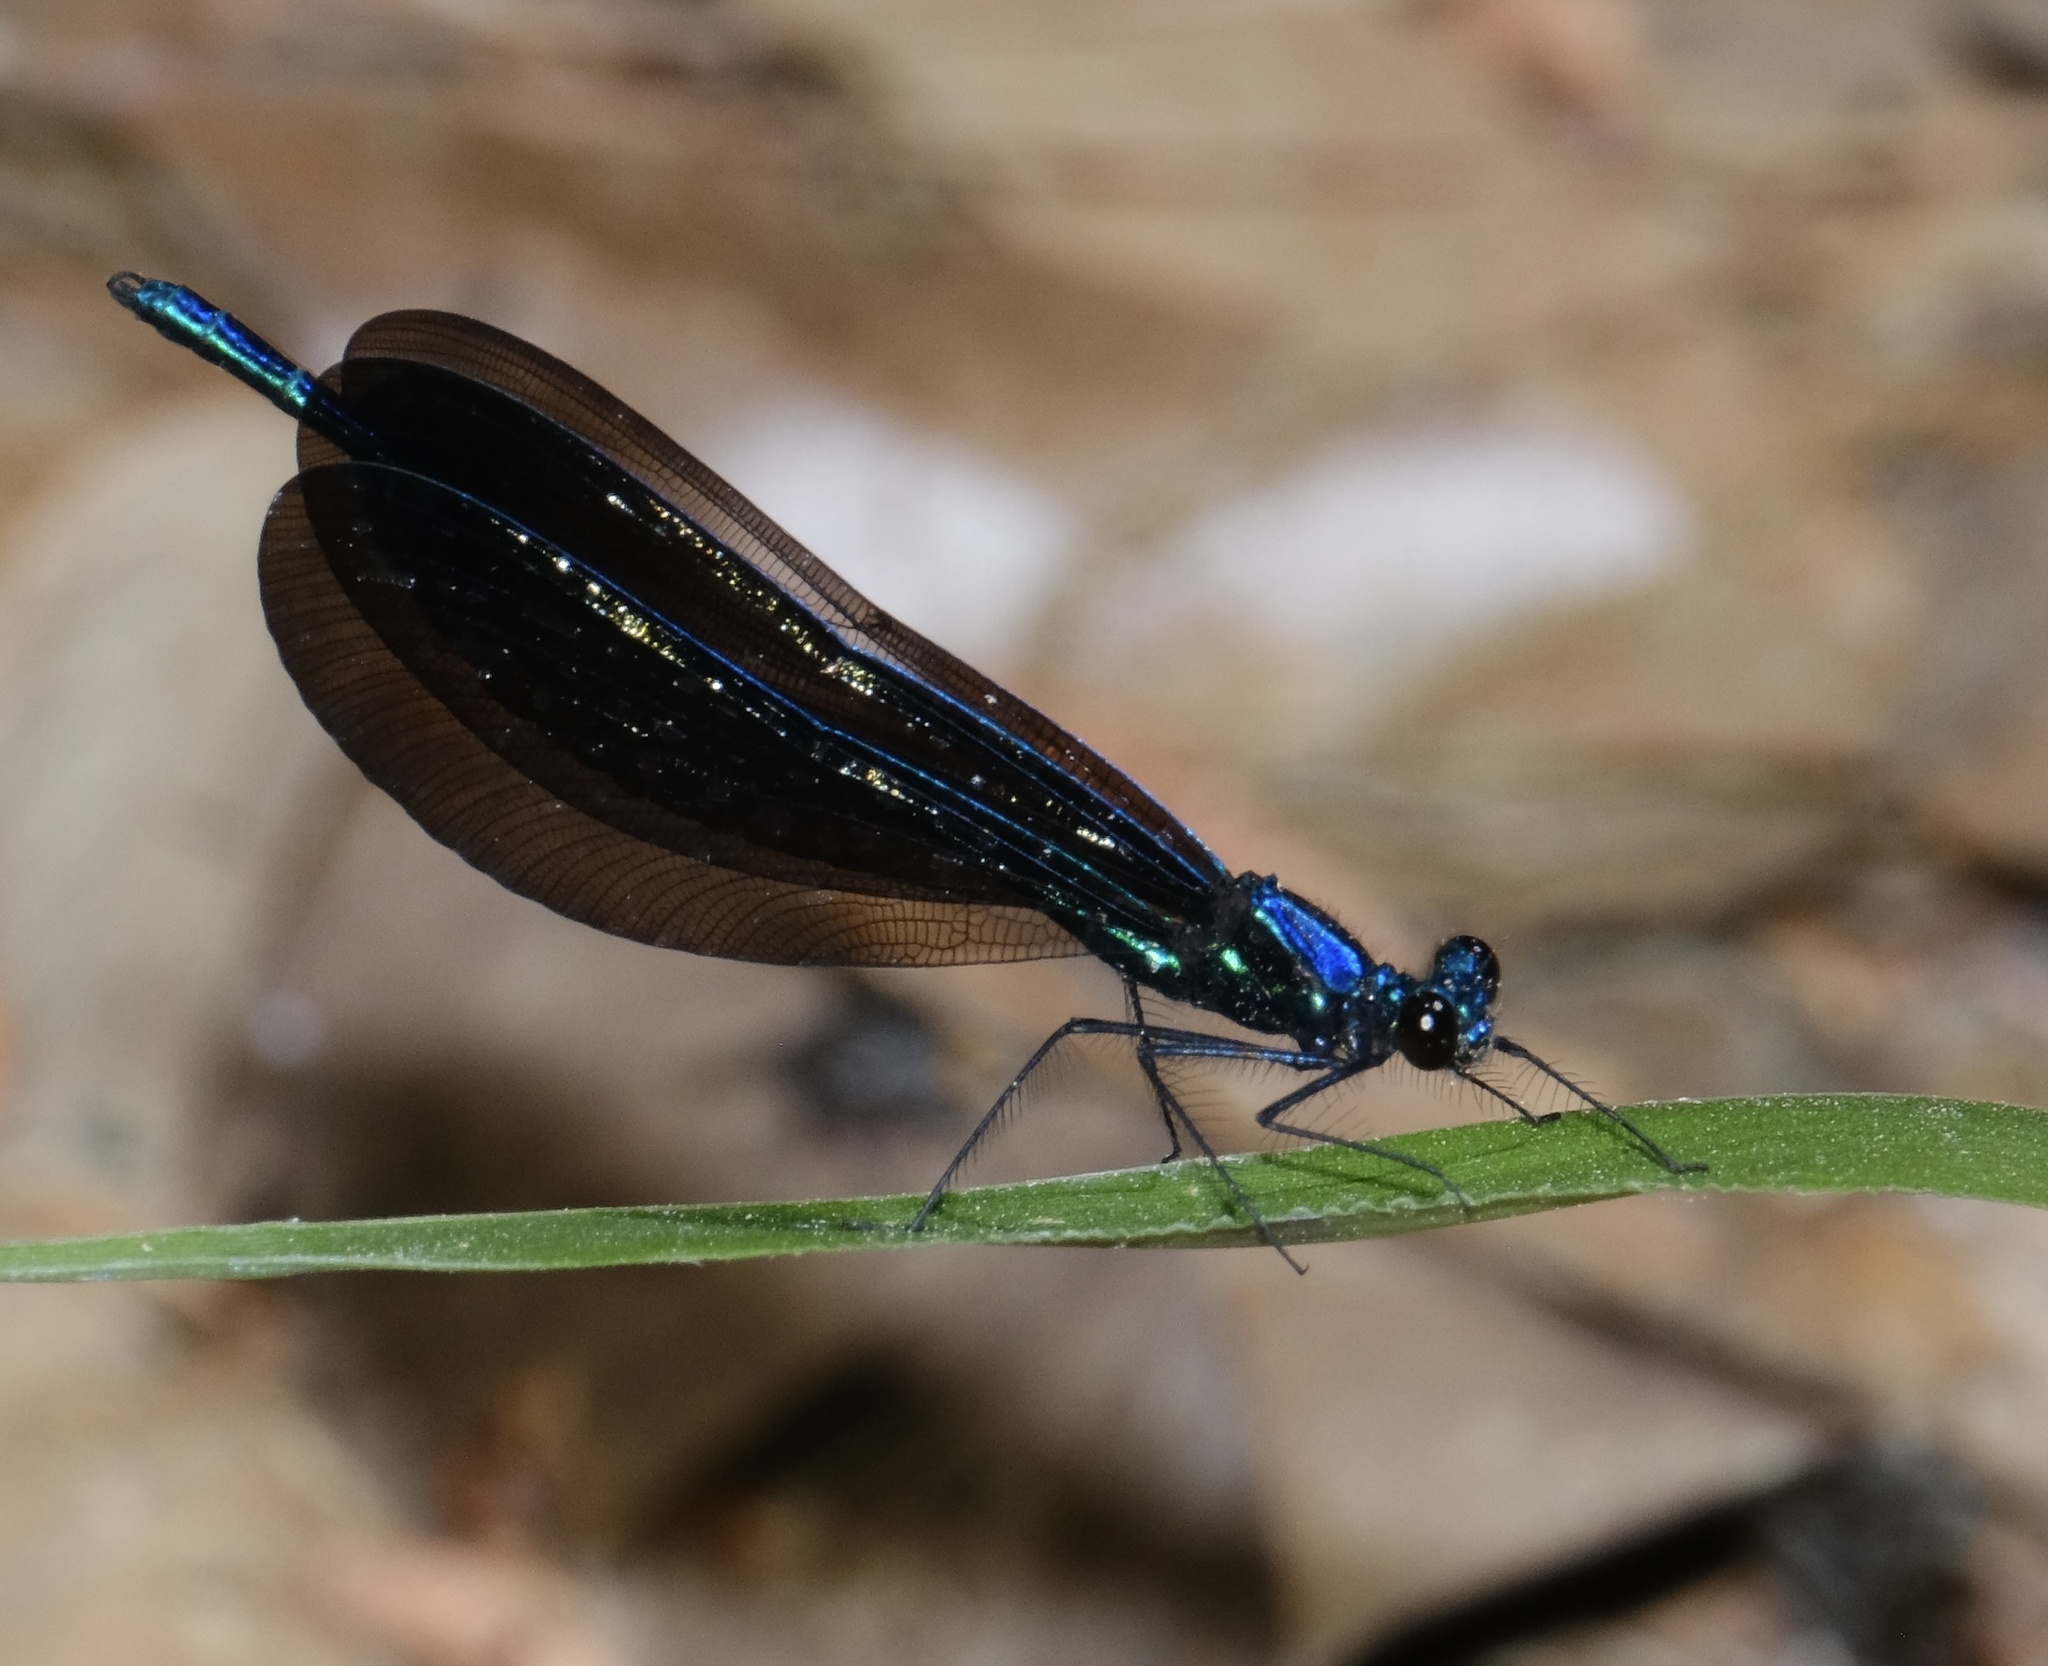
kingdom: Animalia
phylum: Arthropoda
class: Insecta
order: Odonata
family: Calopterygidae
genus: Calopteryx
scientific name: Calopteryx maculata
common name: Ebony jewelwing
